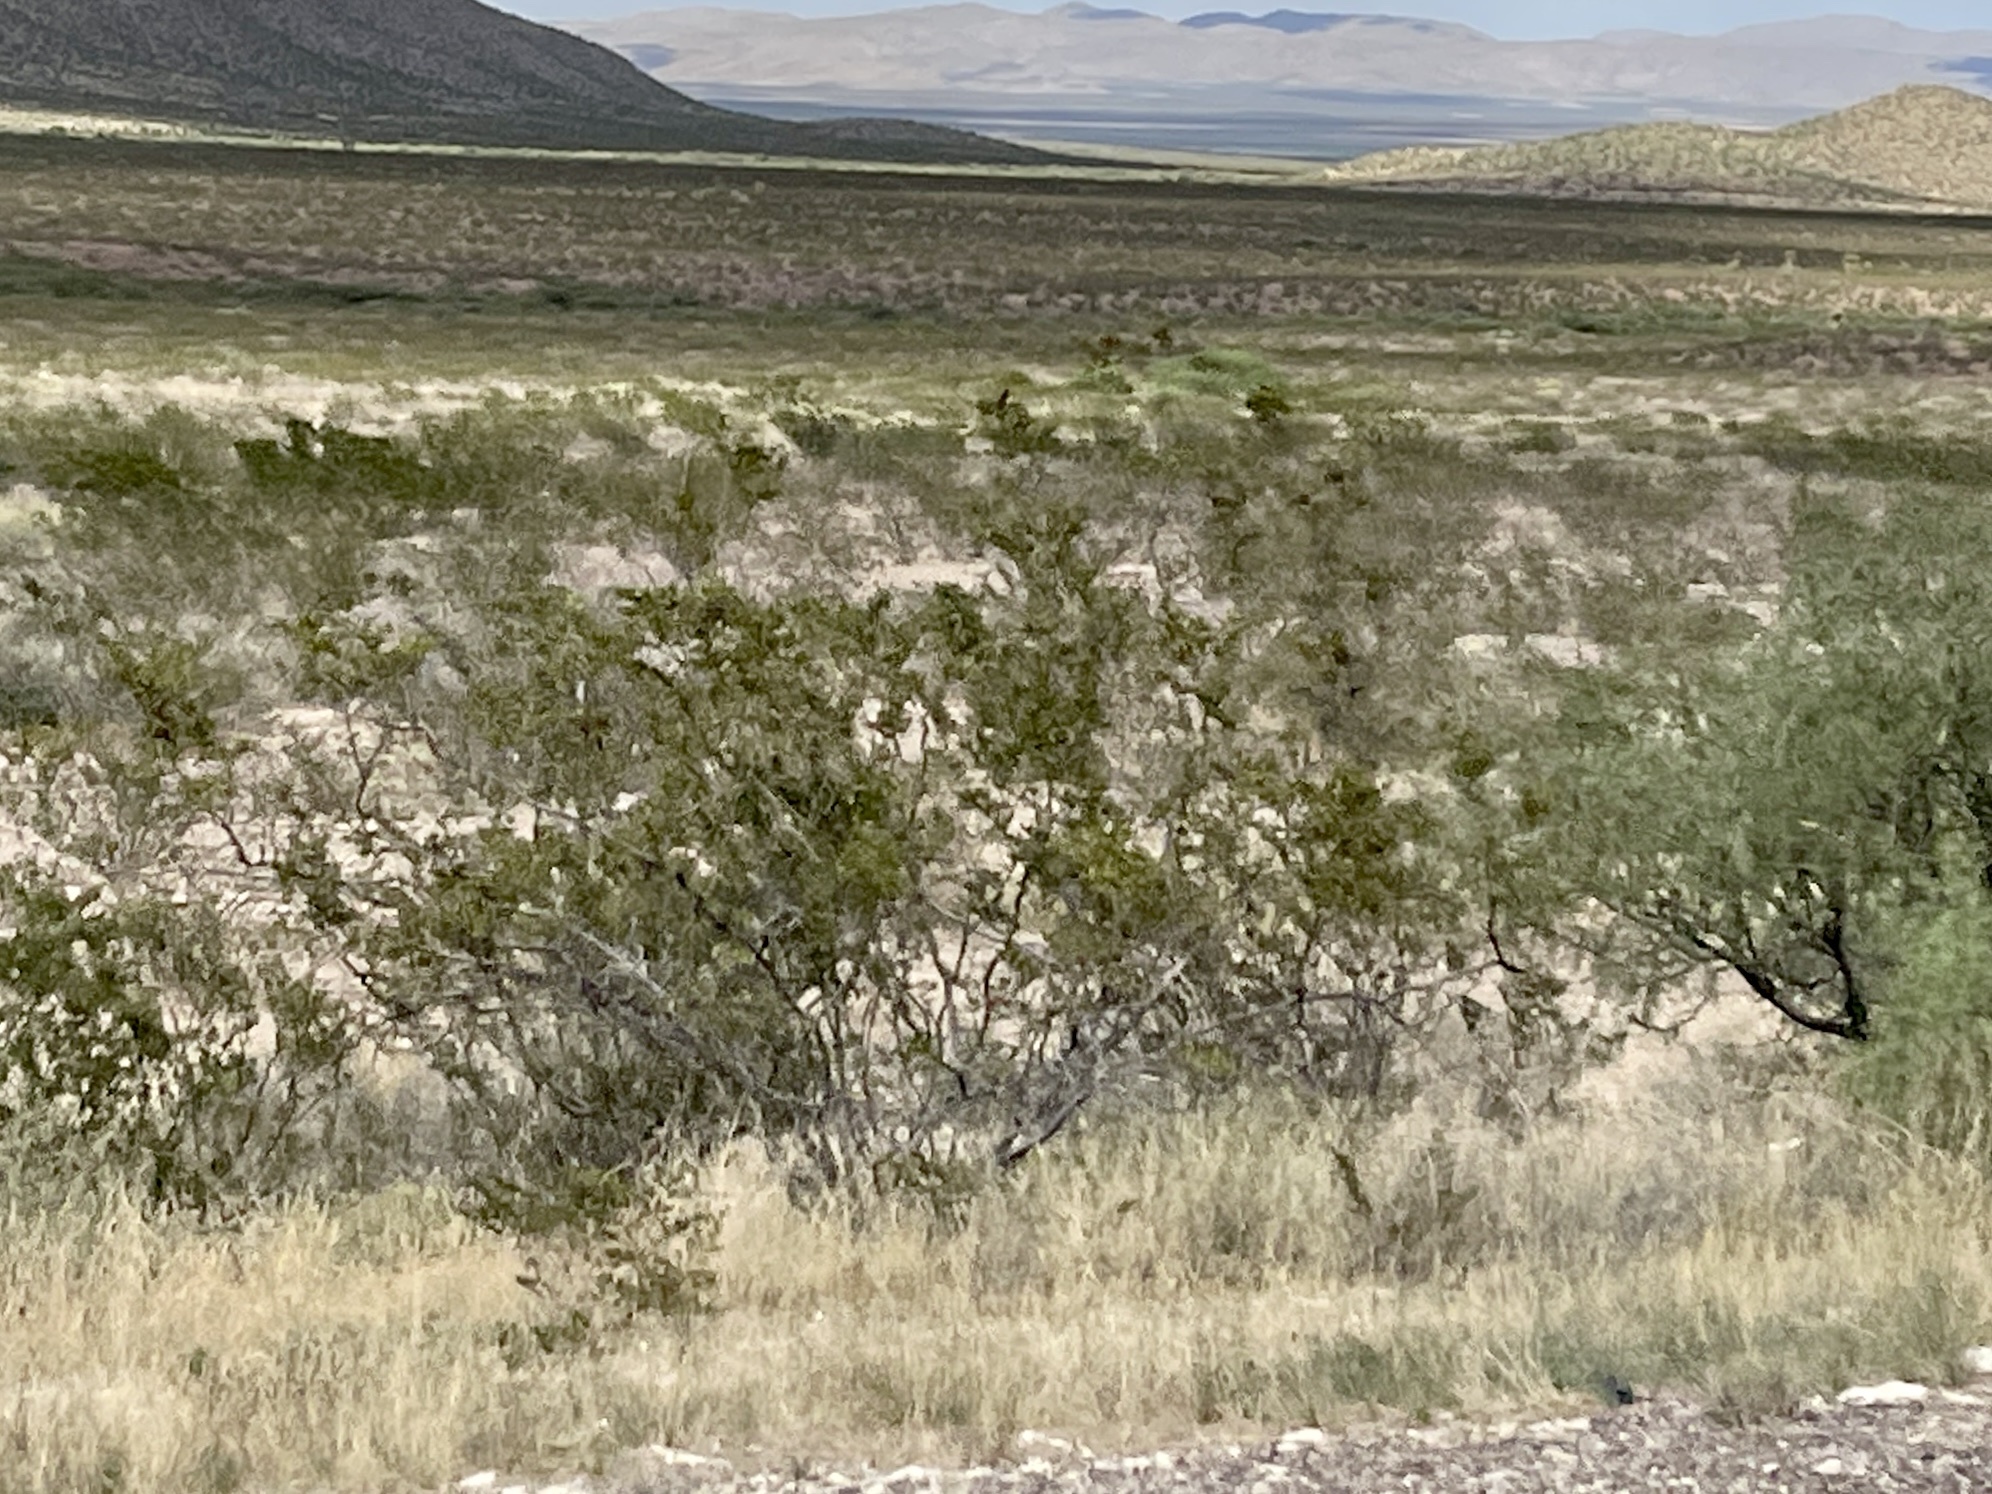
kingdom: Plantae
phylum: Tracheophyta
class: Magnoliopsida
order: Zygophyllales
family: Zygophyllaceae
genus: Larrea
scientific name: Larrea tridentata
